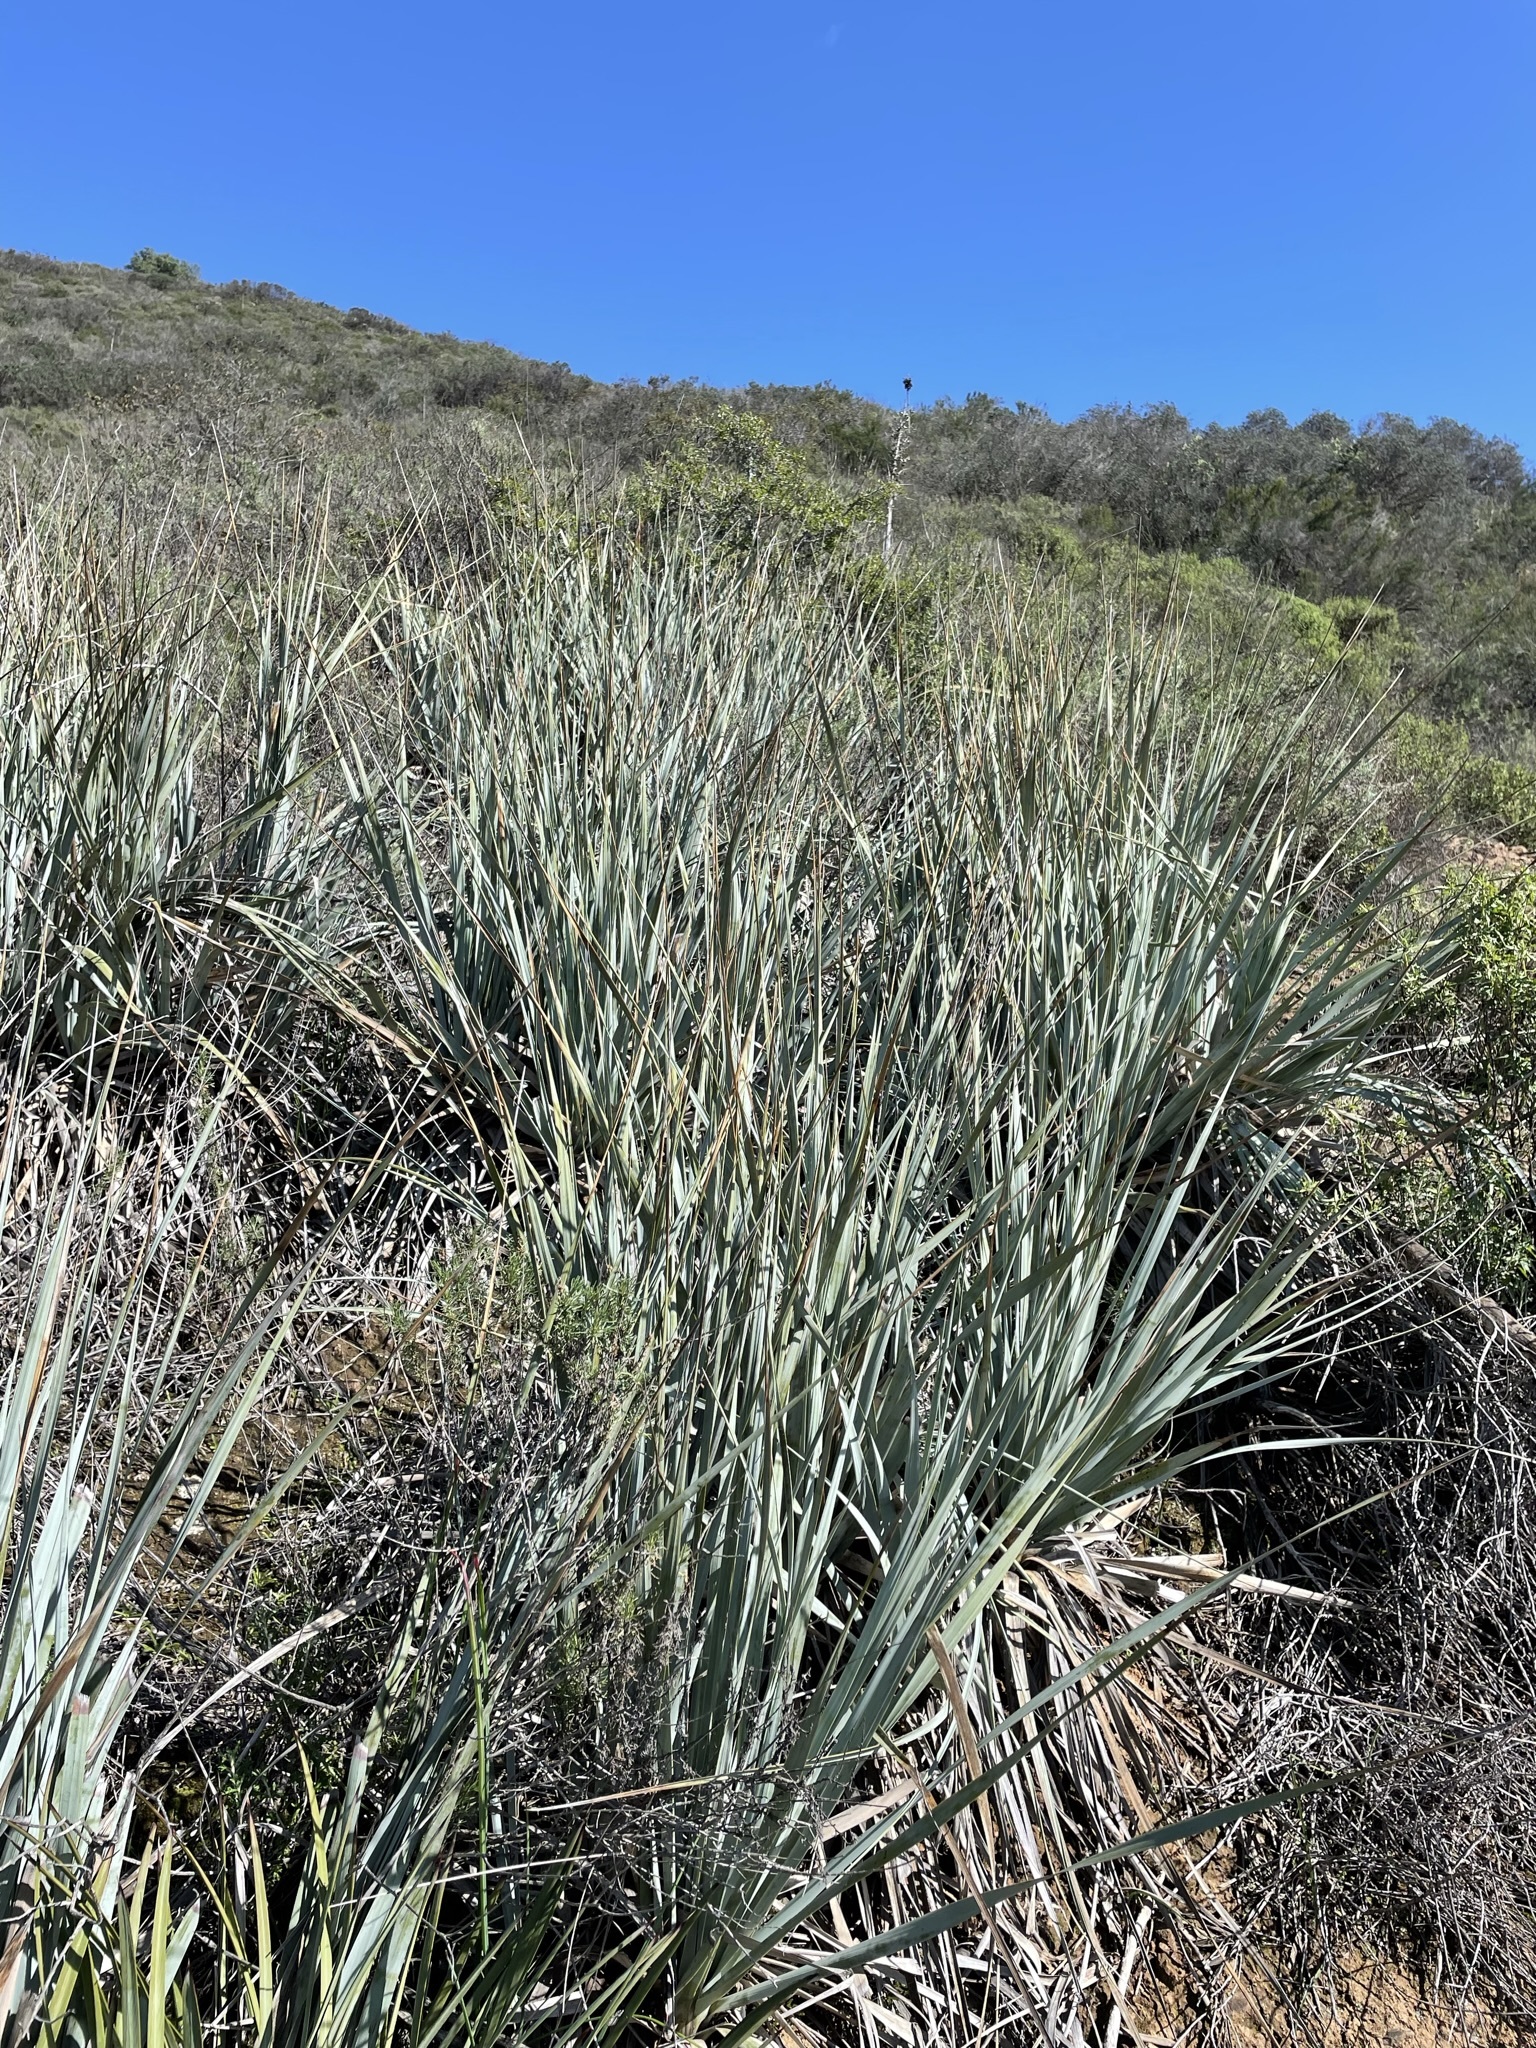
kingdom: Plantae
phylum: Tracheophyta
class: Liliopsida
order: Asparagales
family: Asparagaceae
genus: Nolina
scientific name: Nolina interrata
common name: Dehesa bear-grass
